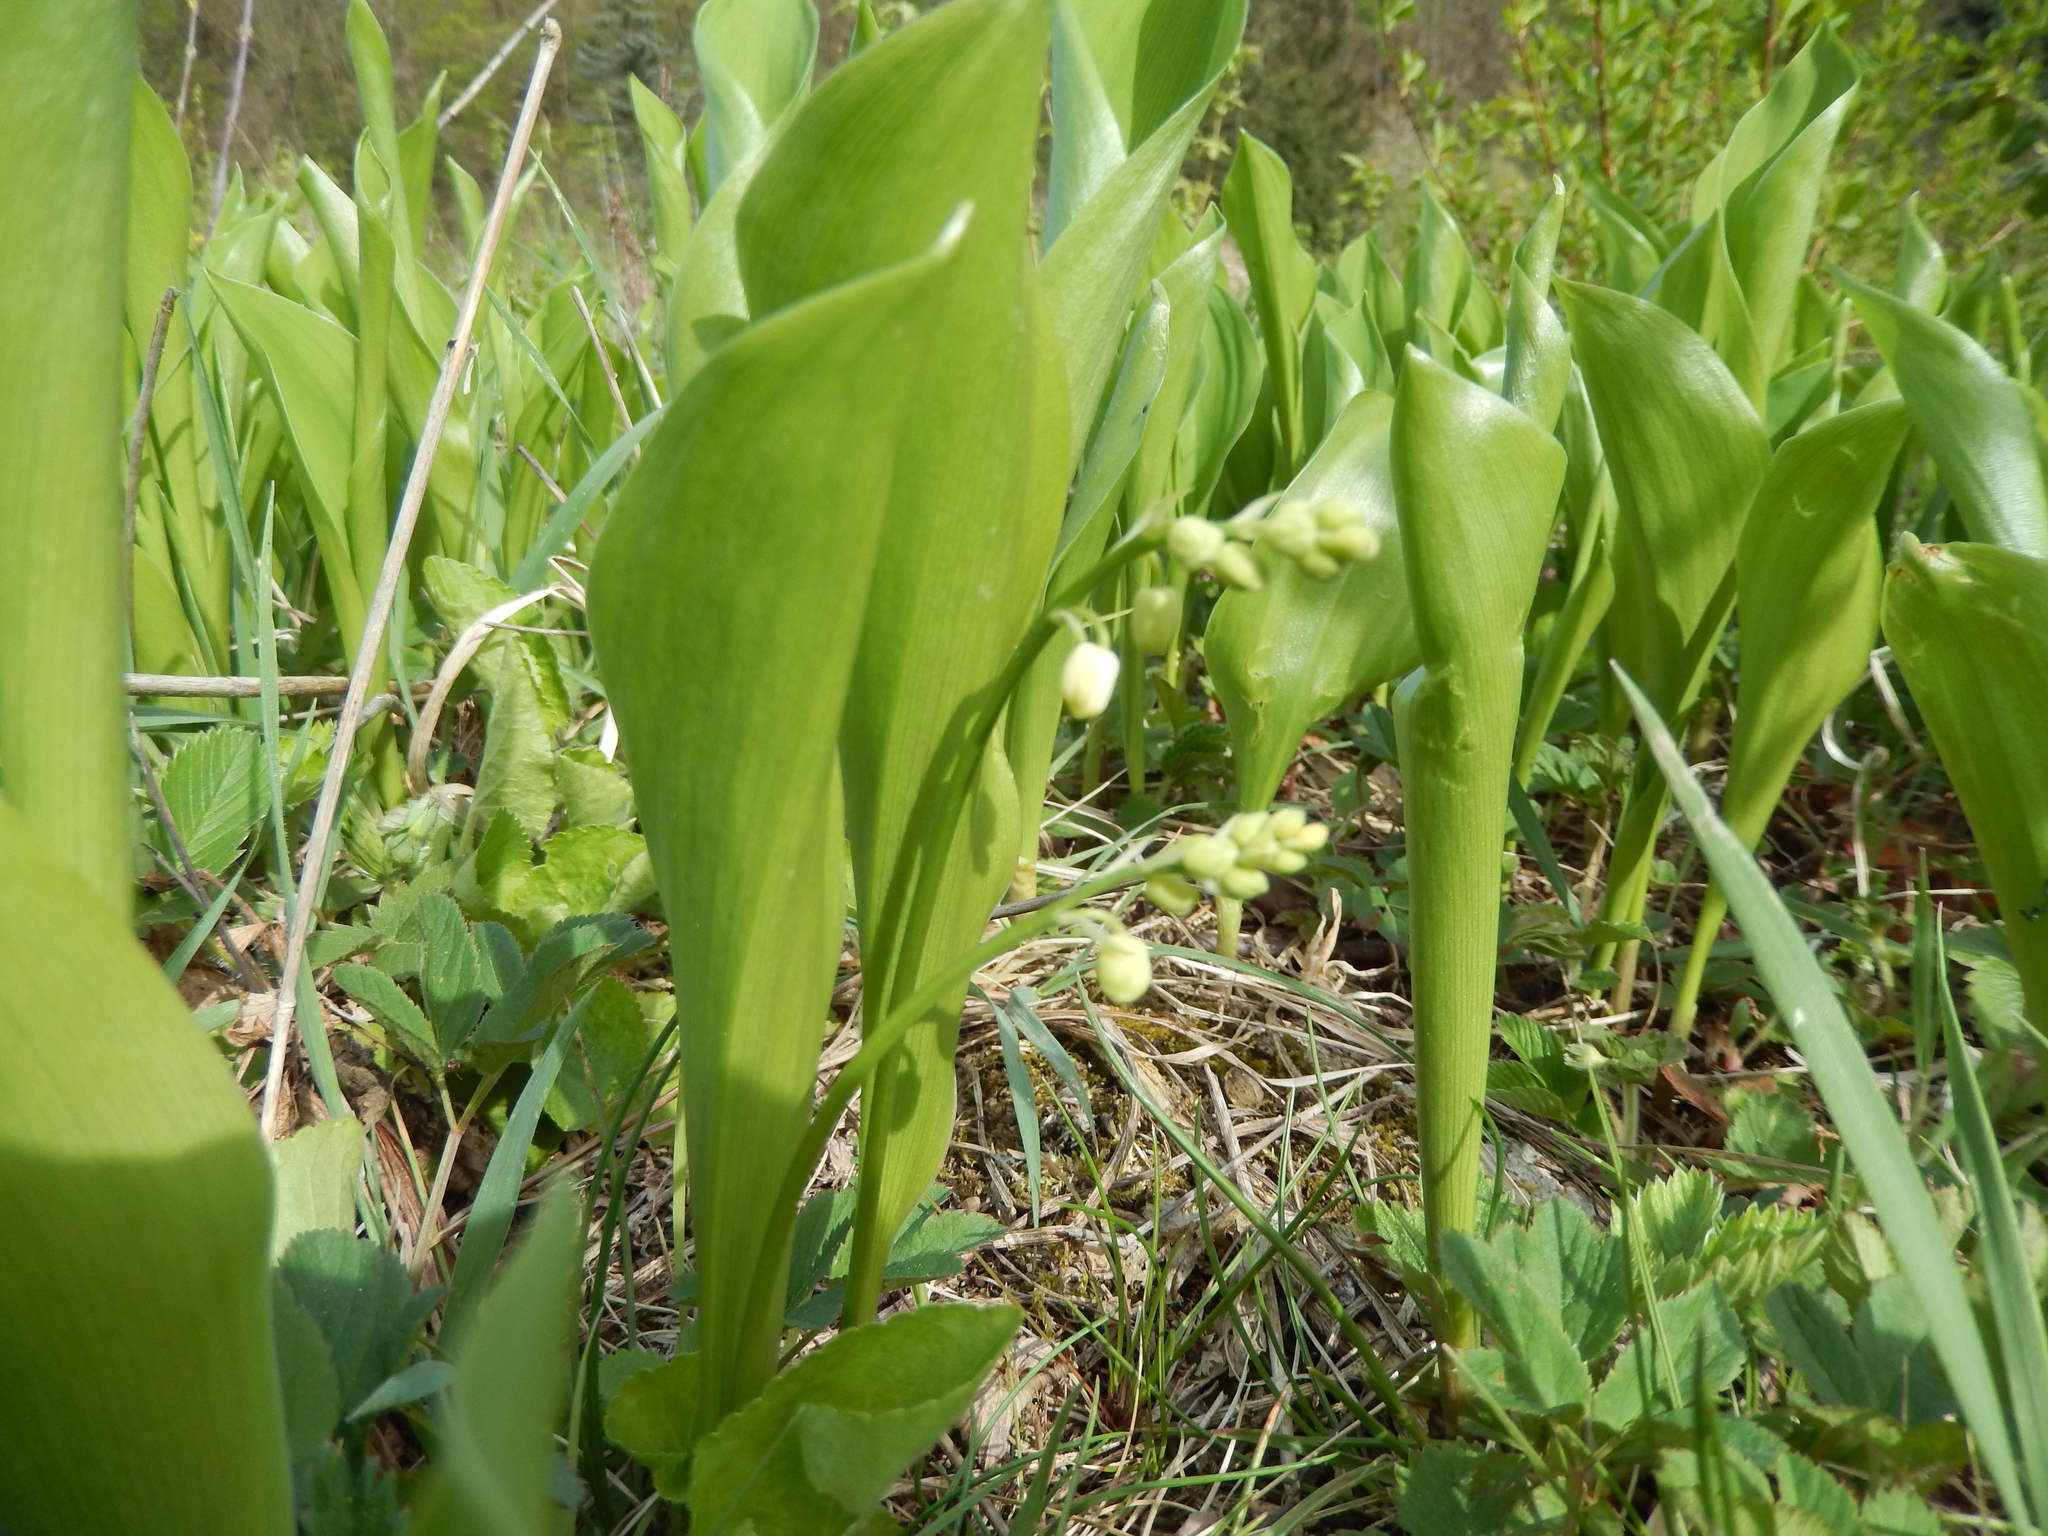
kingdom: Plantae
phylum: Tracheophyta
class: Liliopsida
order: Asparagales
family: Asparagaceae
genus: Convallaria
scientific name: Convallaria majalis
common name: Lily-of-the-valley
